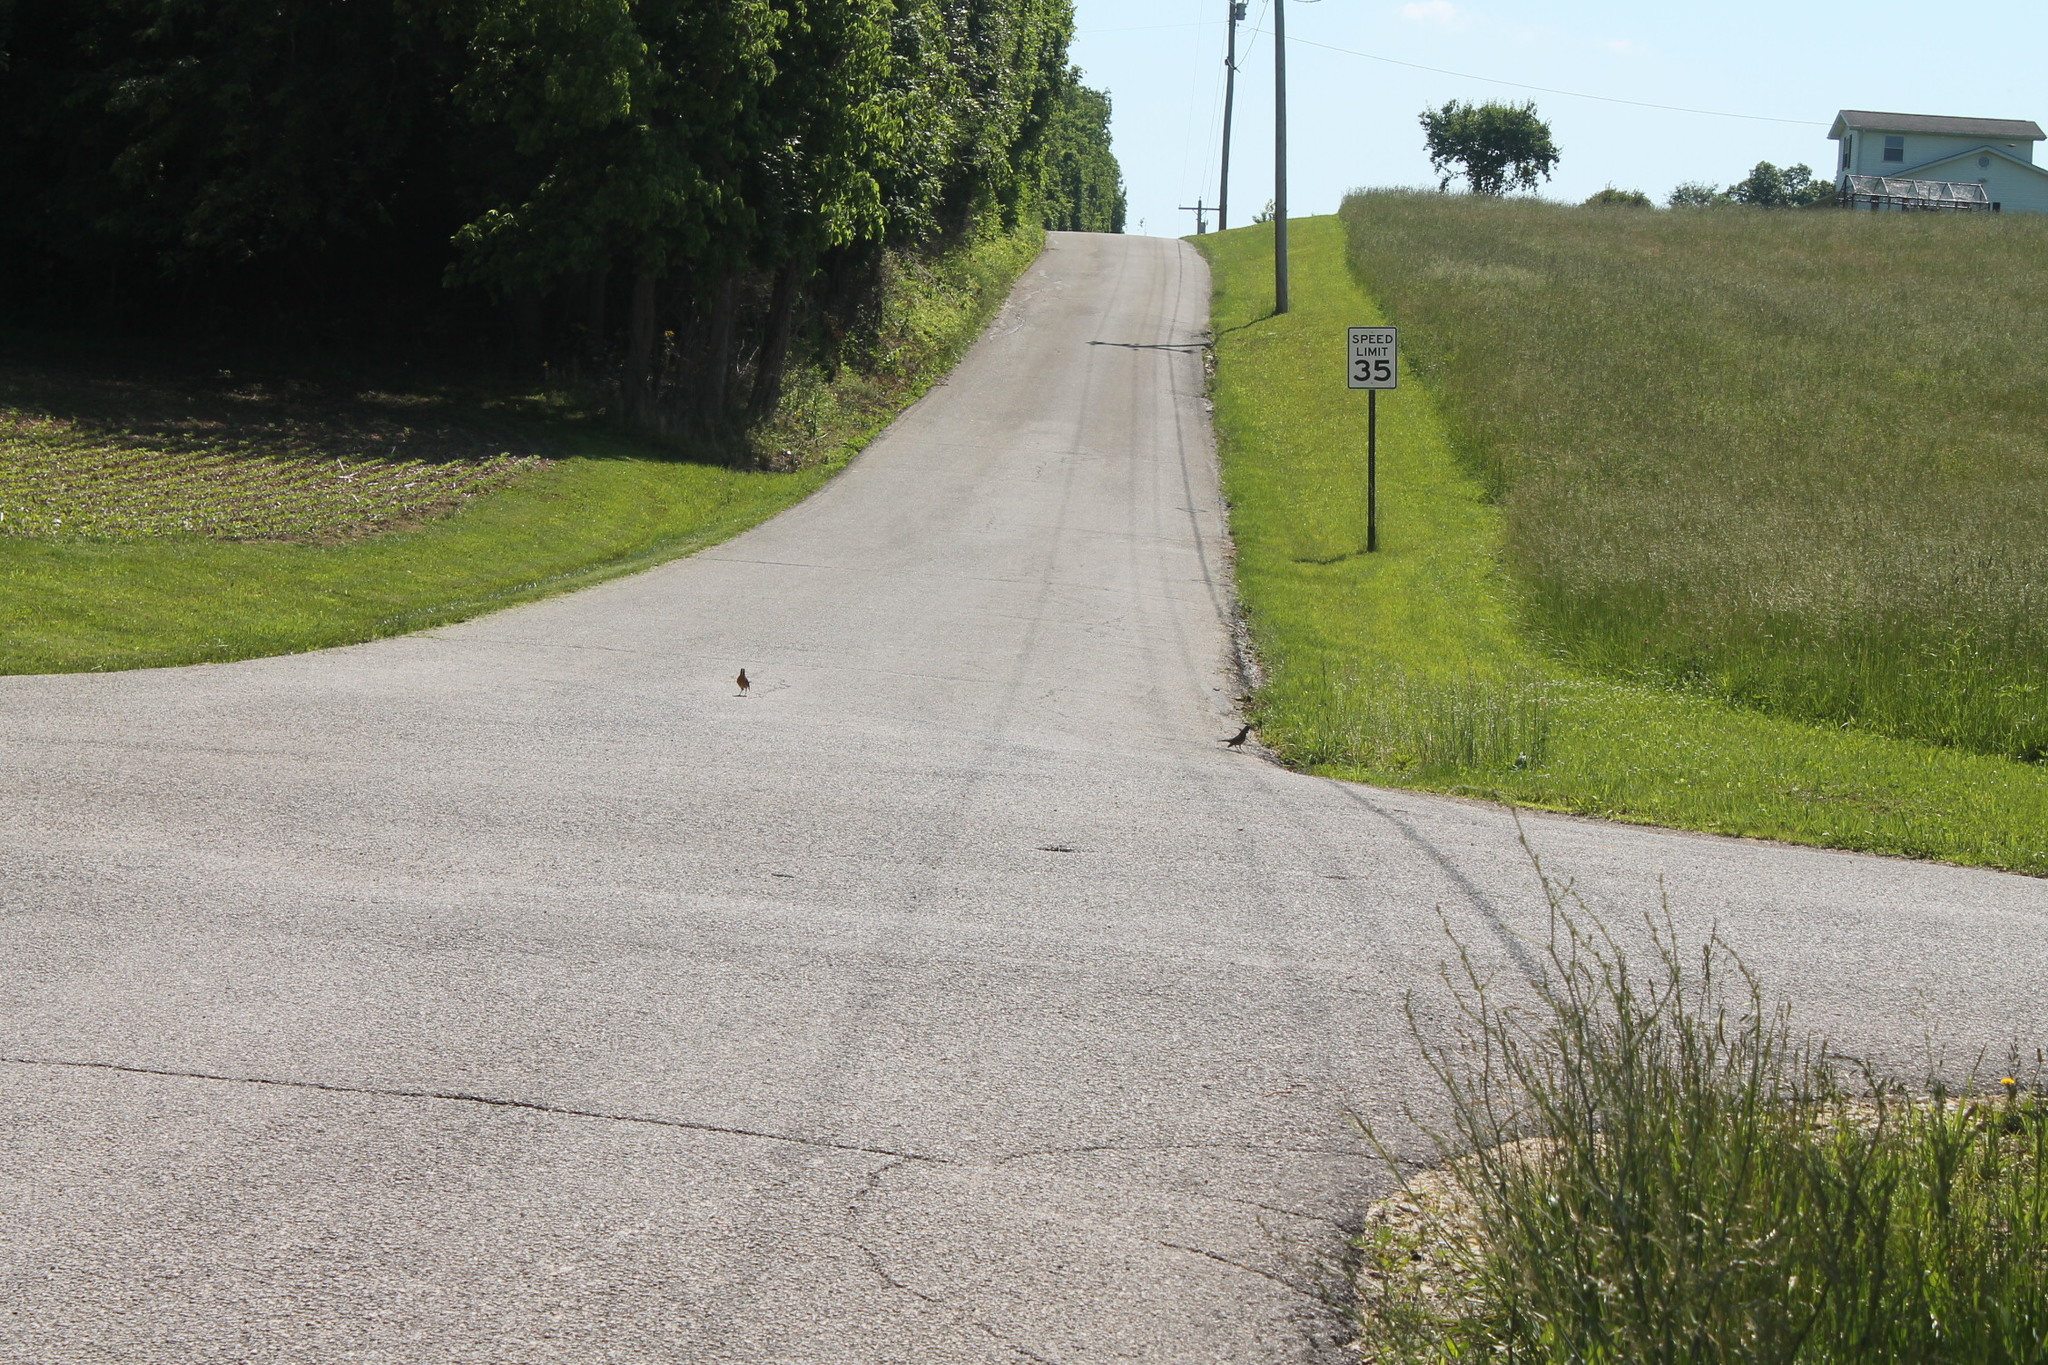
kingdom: Animalia
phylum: Chordata
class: Aves
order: Passeriformes
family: Turdidae
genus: Turdus
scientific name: Turdus migratorius
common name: American robin
